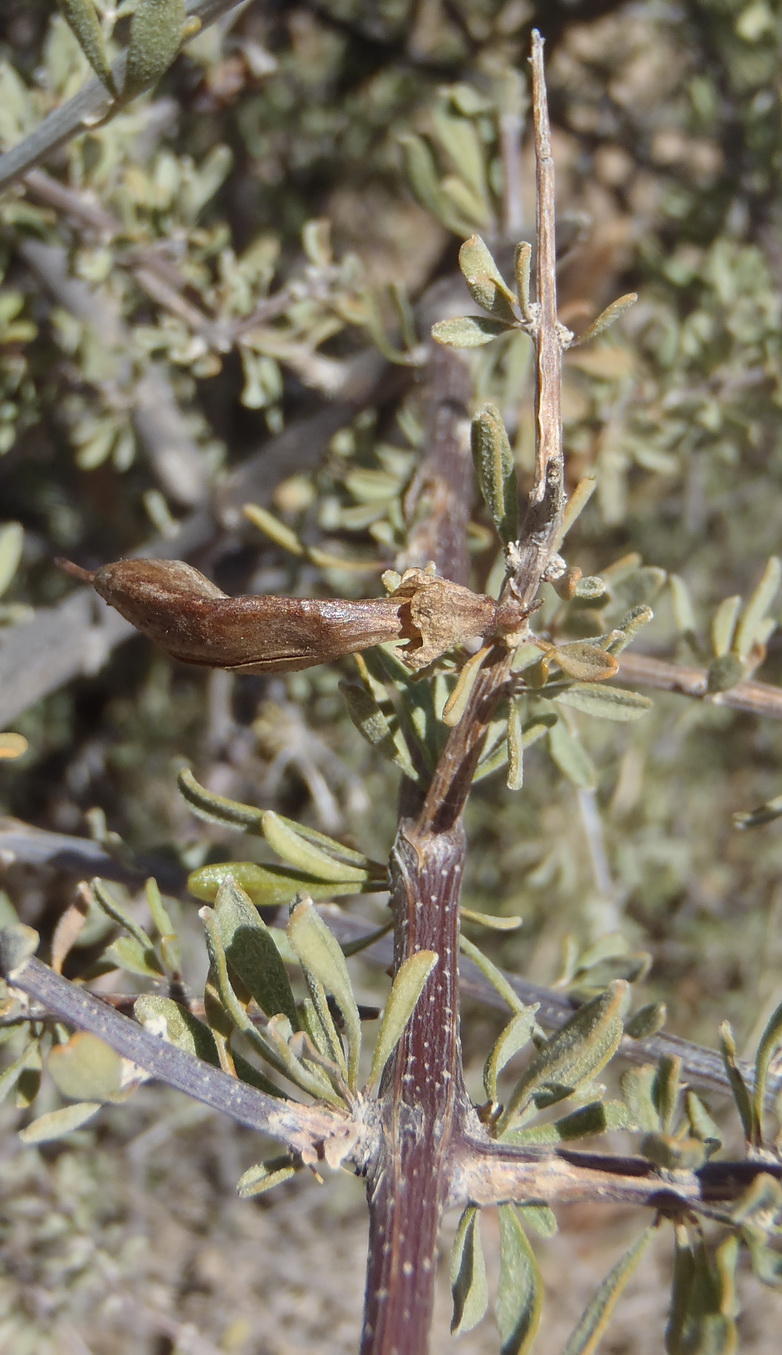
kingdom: Plantae
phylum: Tracheophyta
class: Magnoliopsida
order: Lamiales
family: Bignoniaceae
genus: Rhigozum
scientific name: Rhigozum obovatum
